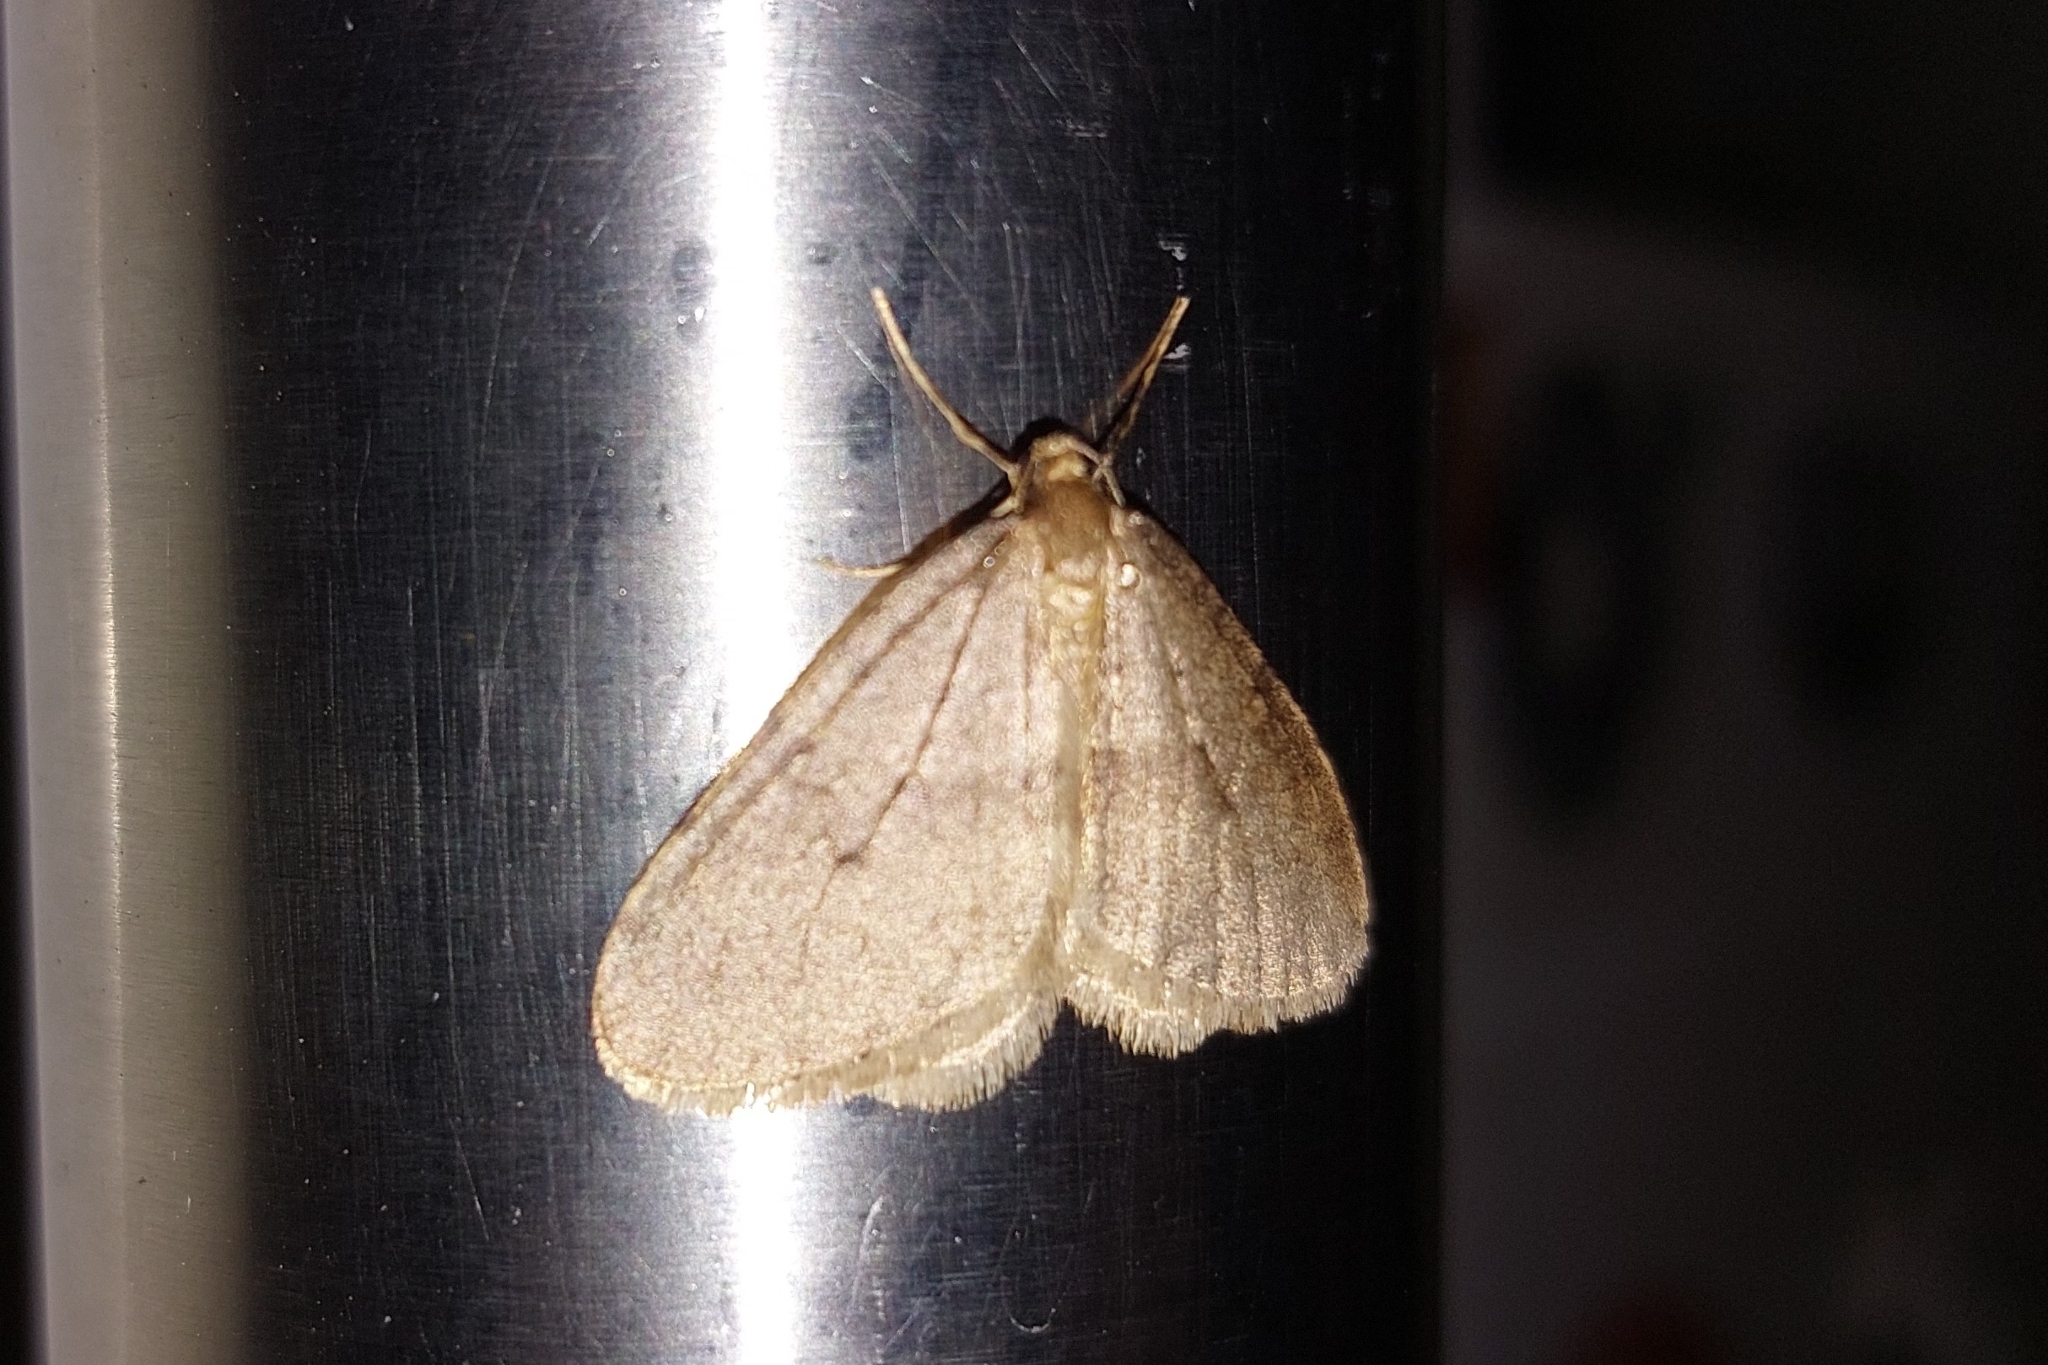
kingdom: Animalia
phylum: Arthropoda
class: Insecta
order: Lepidoptera
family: Geometridae
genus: Operophtera
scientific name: Operophtera brumata
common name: Winter moth
